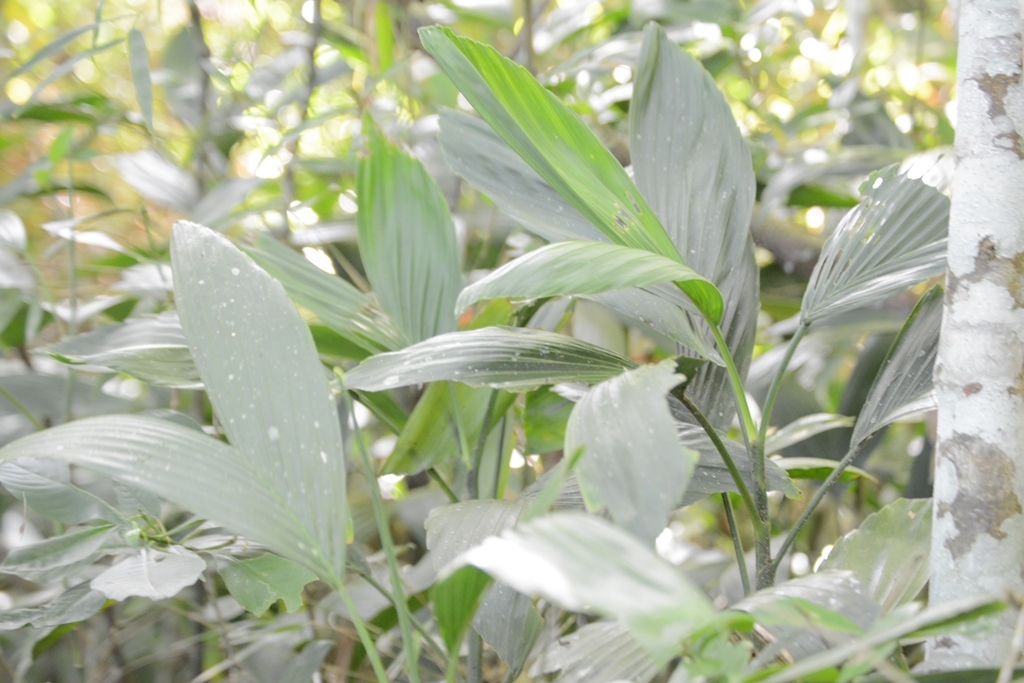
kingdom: Plantae
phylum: Tracheophyta
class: Liliopsida
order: Arecales
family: Arecaceae
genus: Chamaedorea
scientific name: Chamaedorea stolonifera
